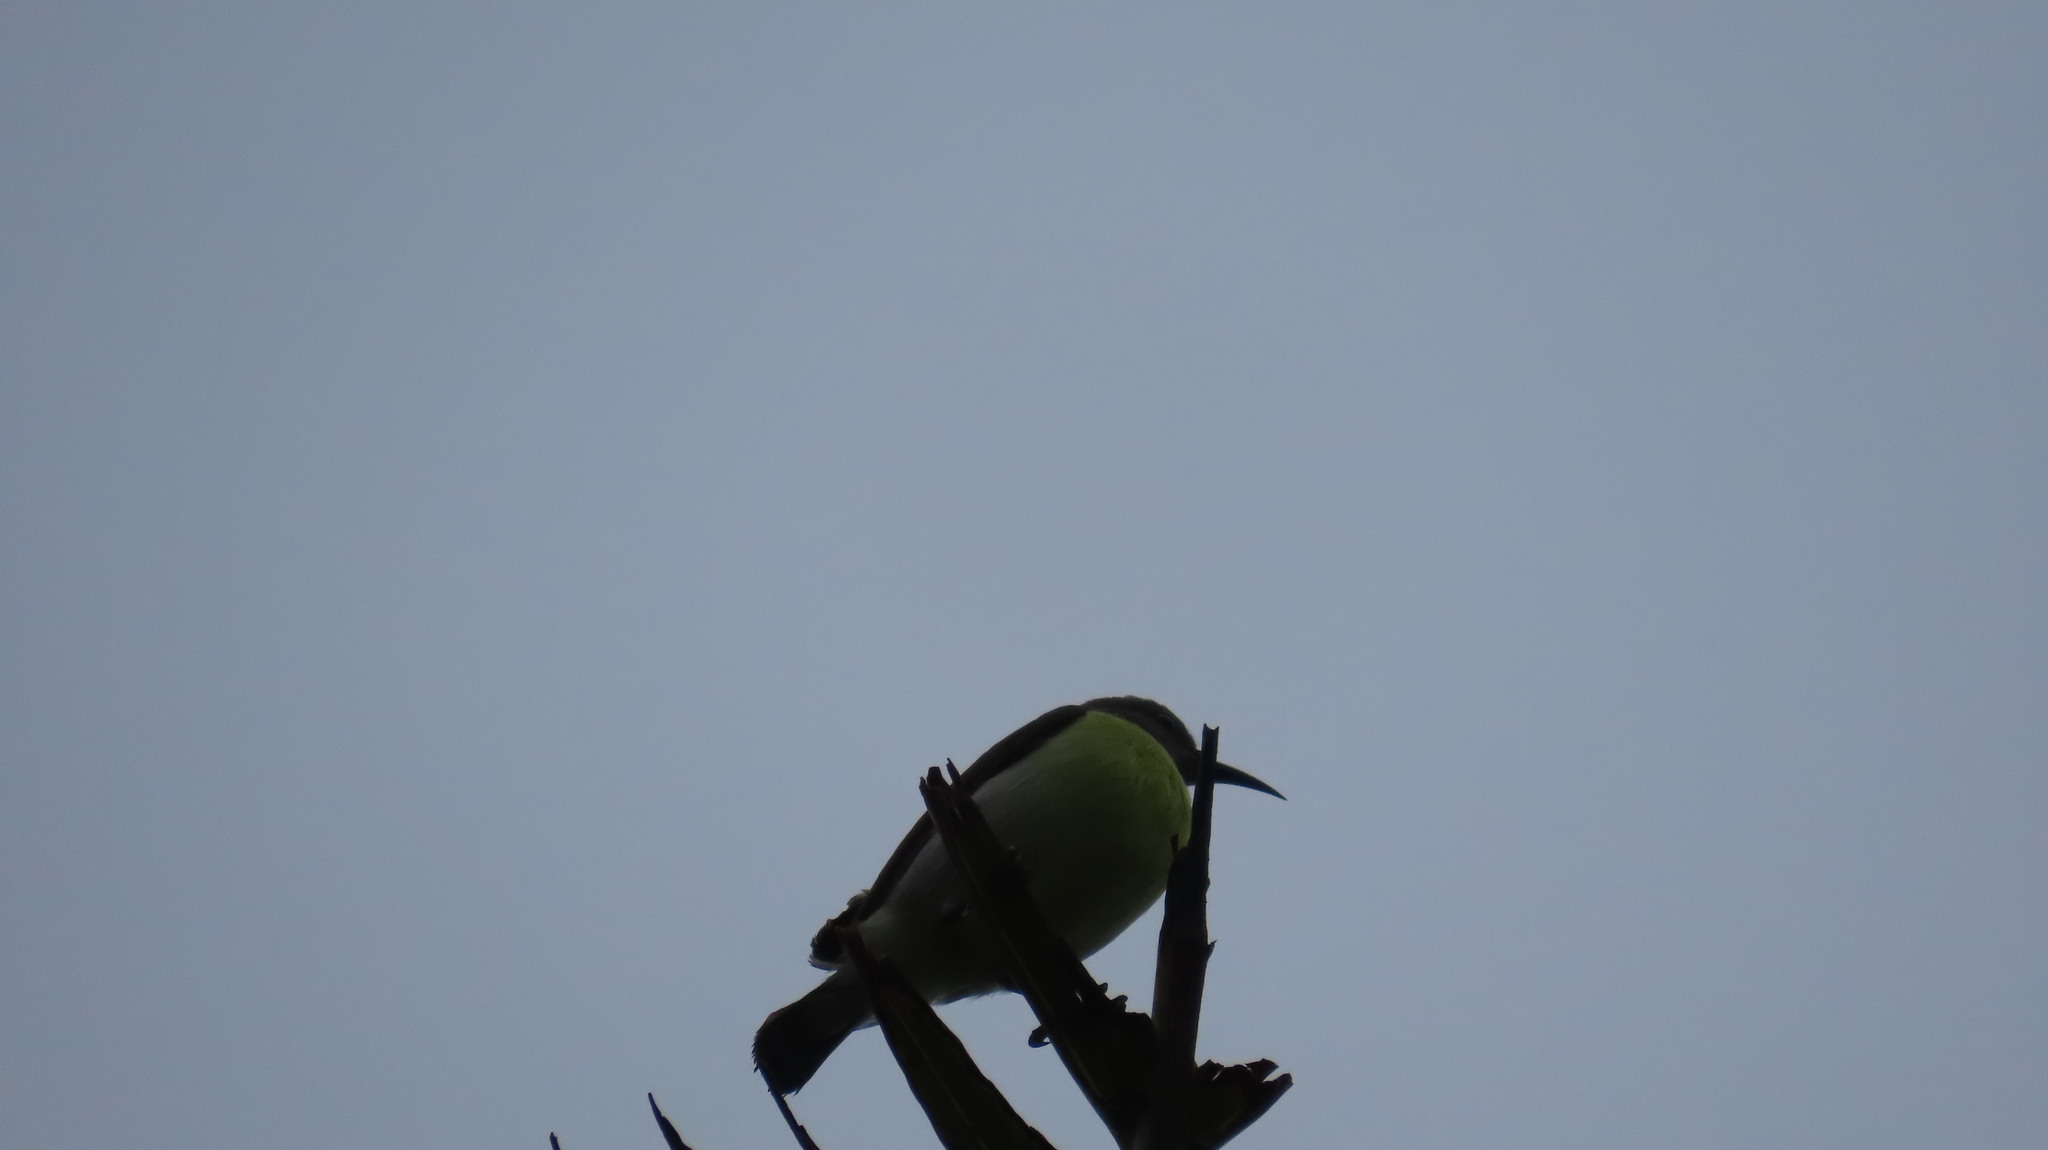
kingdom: Animalia
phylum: Chordata
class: Aves
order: Passeriformes
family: Nectariniidae
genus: Leptocoma
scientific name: Leptocoma zeylonica
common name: Purple-rumped sunbird
